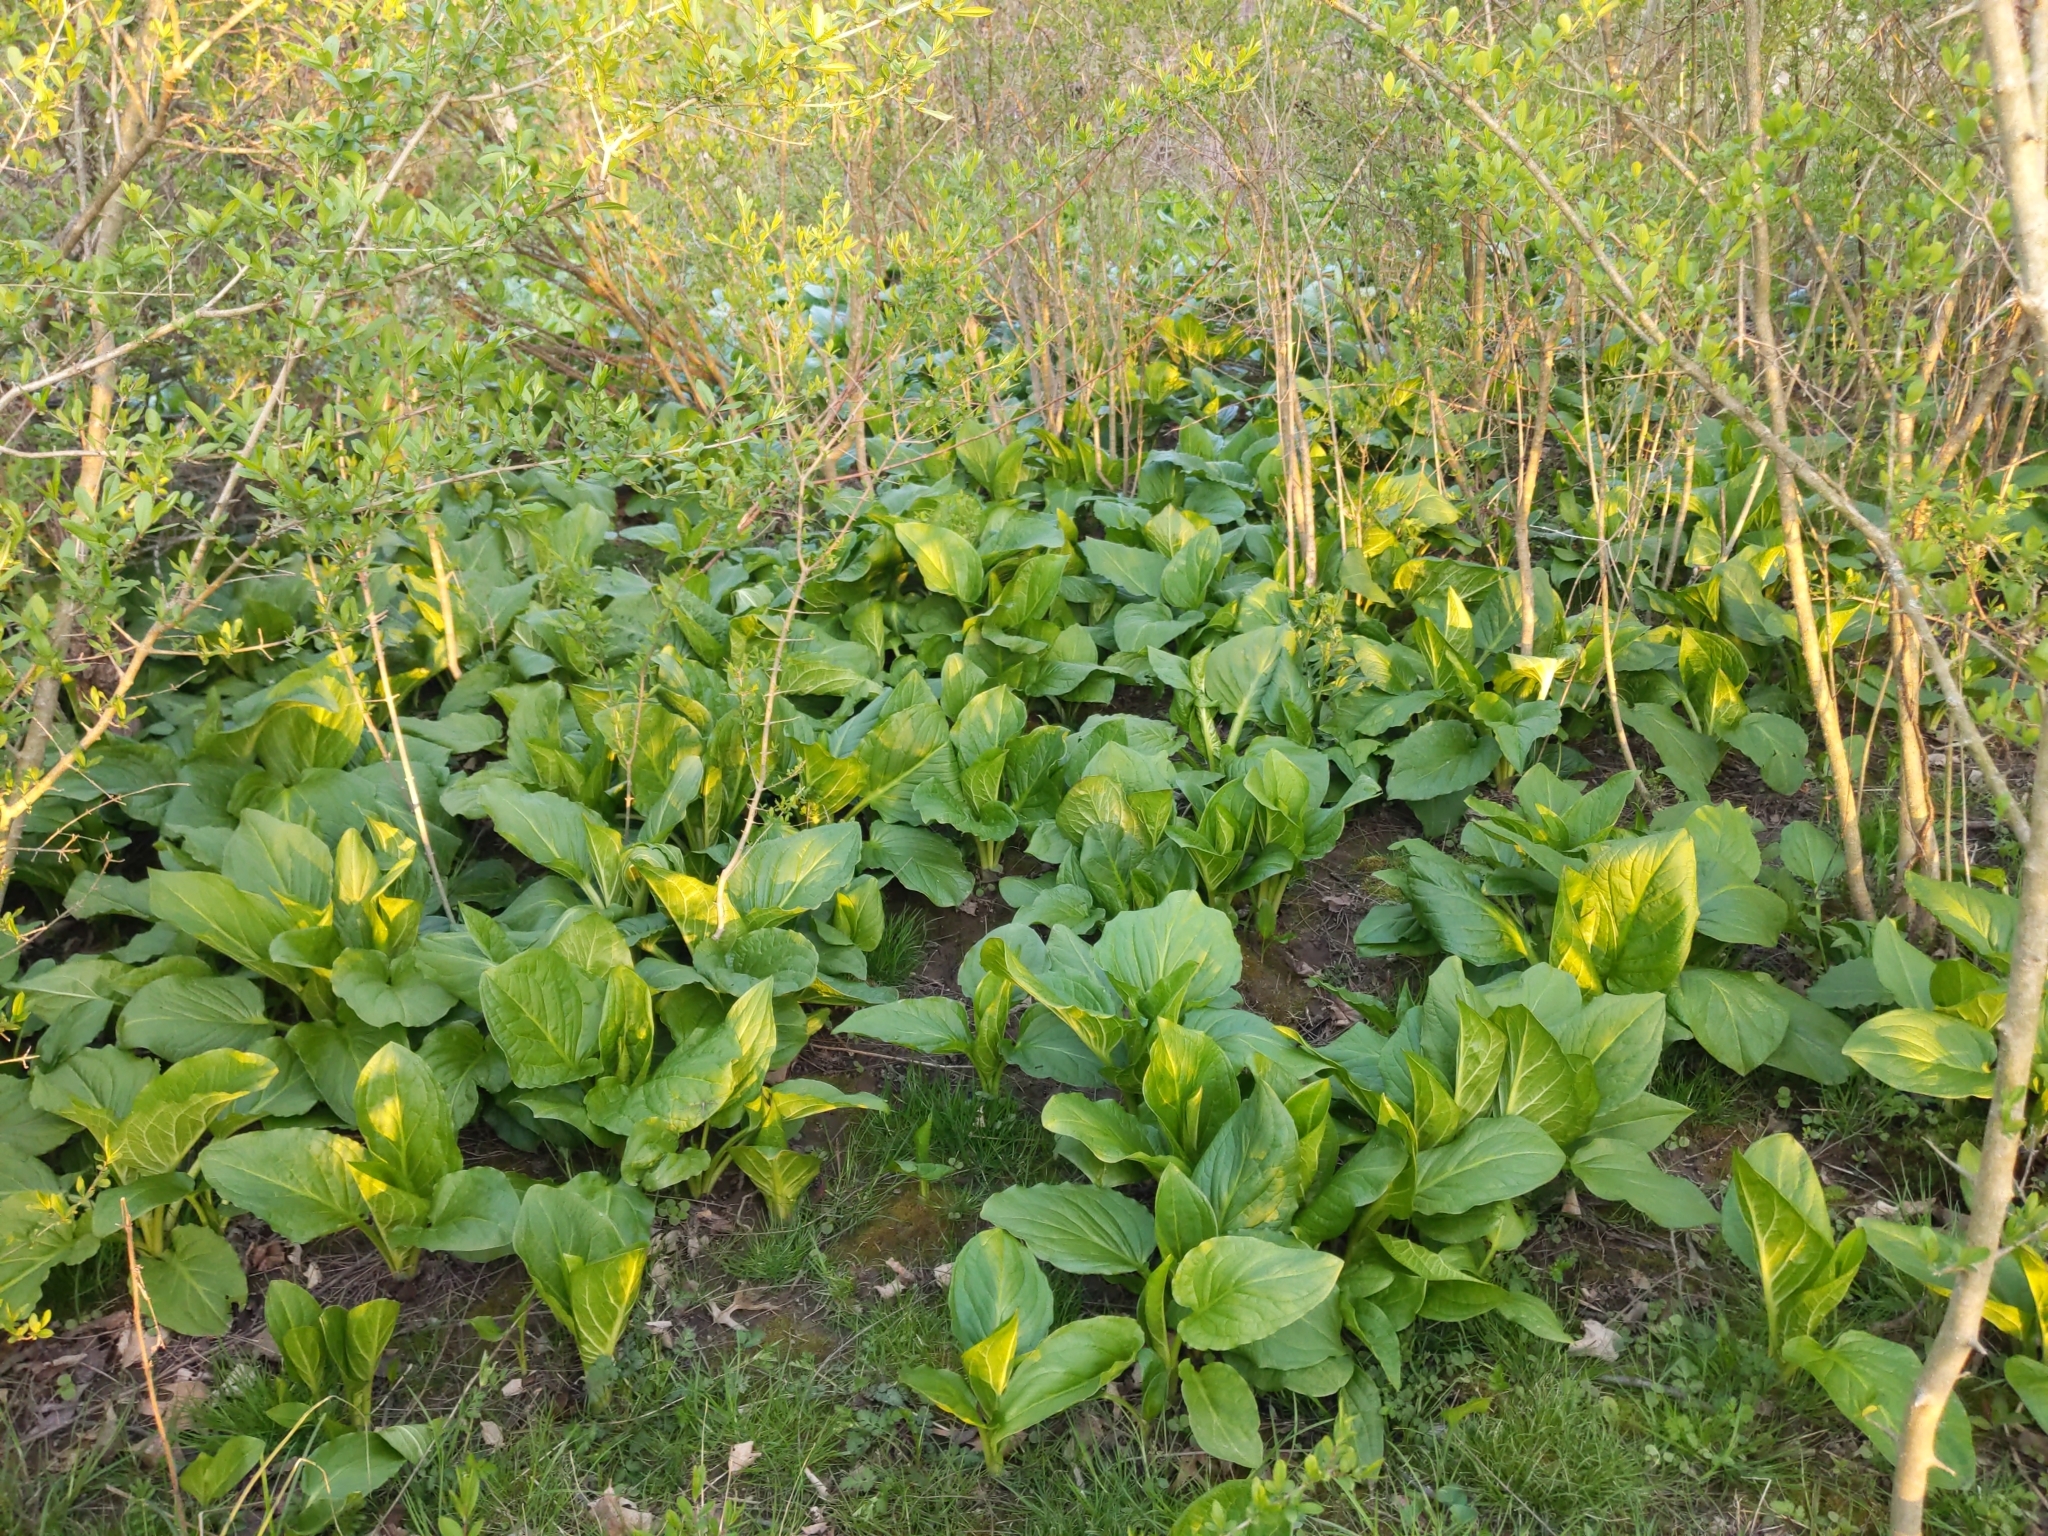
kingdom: Plantae
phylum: Tracheophyta
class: Liliopsida
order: Alismatales
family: Araceae
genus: Symplocarpus
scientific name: Symplocarpus foetidus
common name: Eastern skunk cabbage
